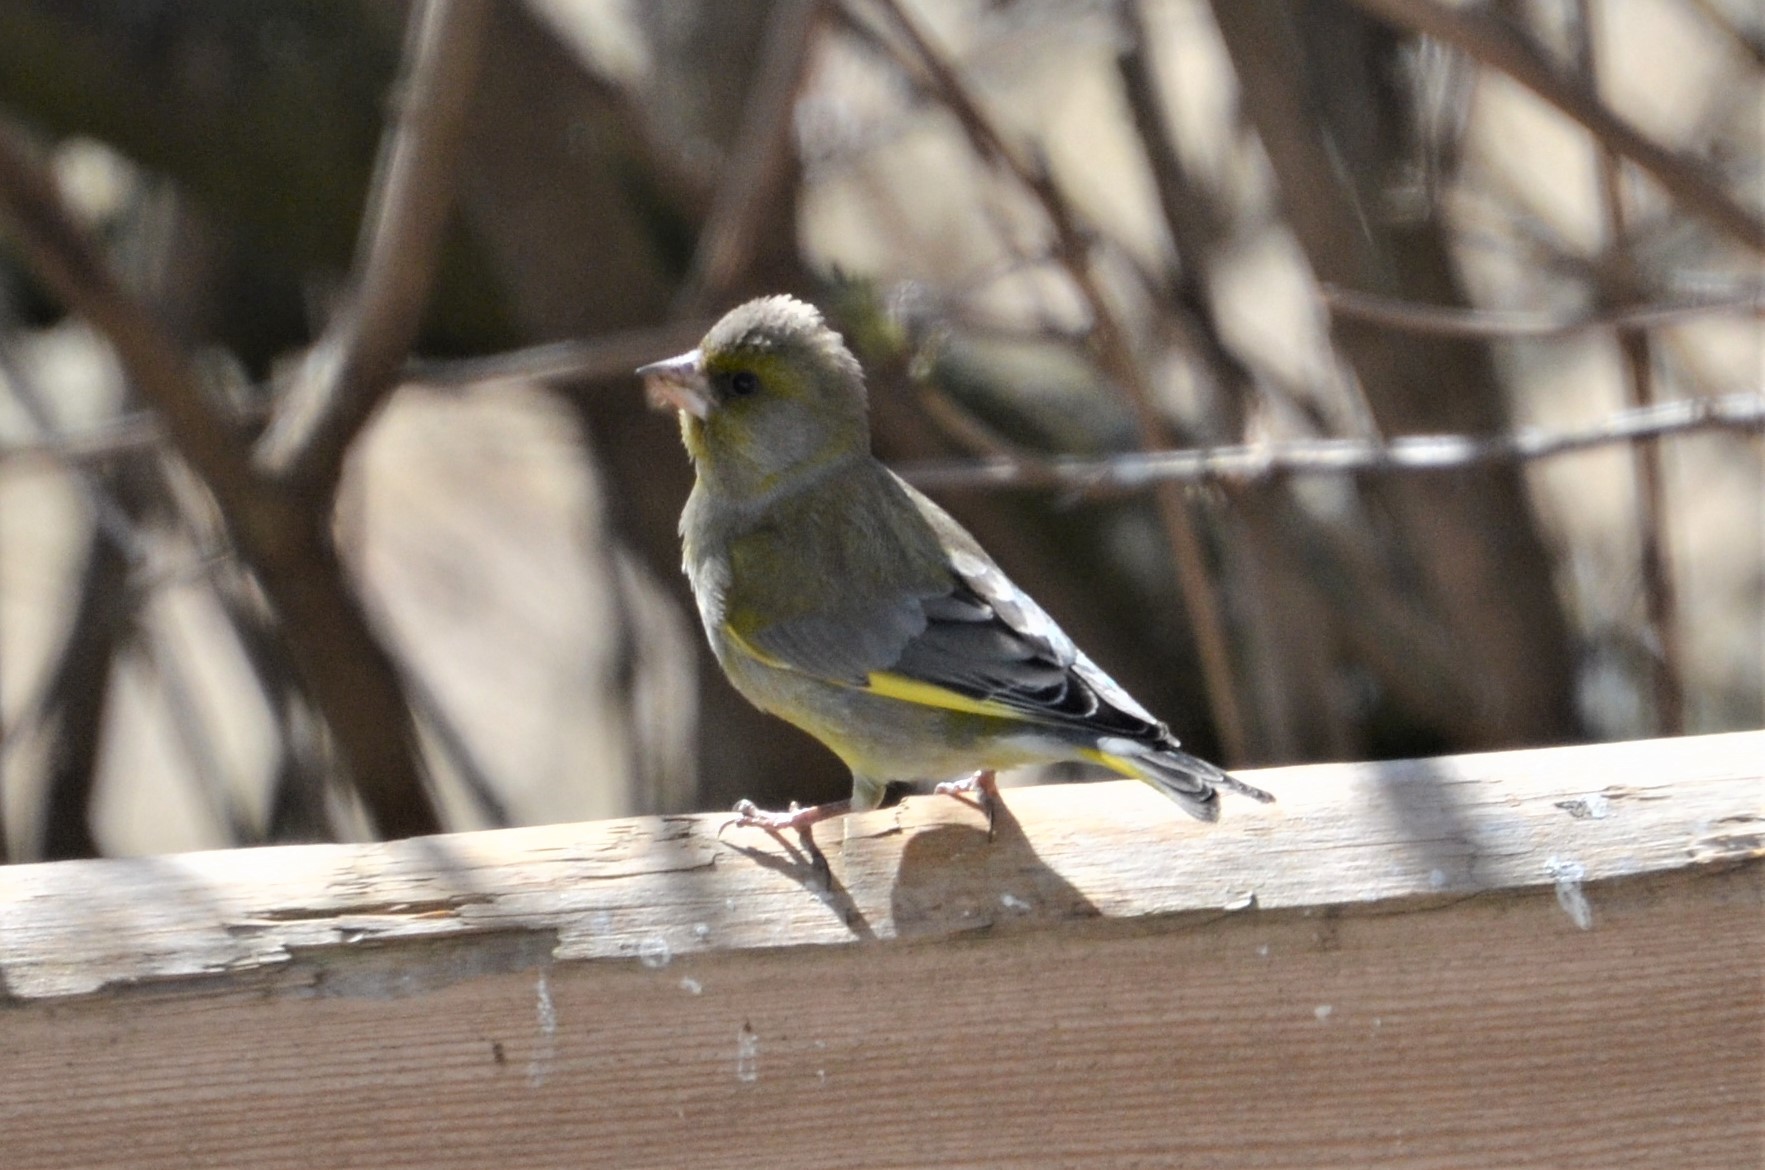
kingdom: Plantae
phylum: Tracheophyta
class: Liliopsida
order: Poales
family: Poaceae
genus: Chloris
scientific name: Chloris chloris
